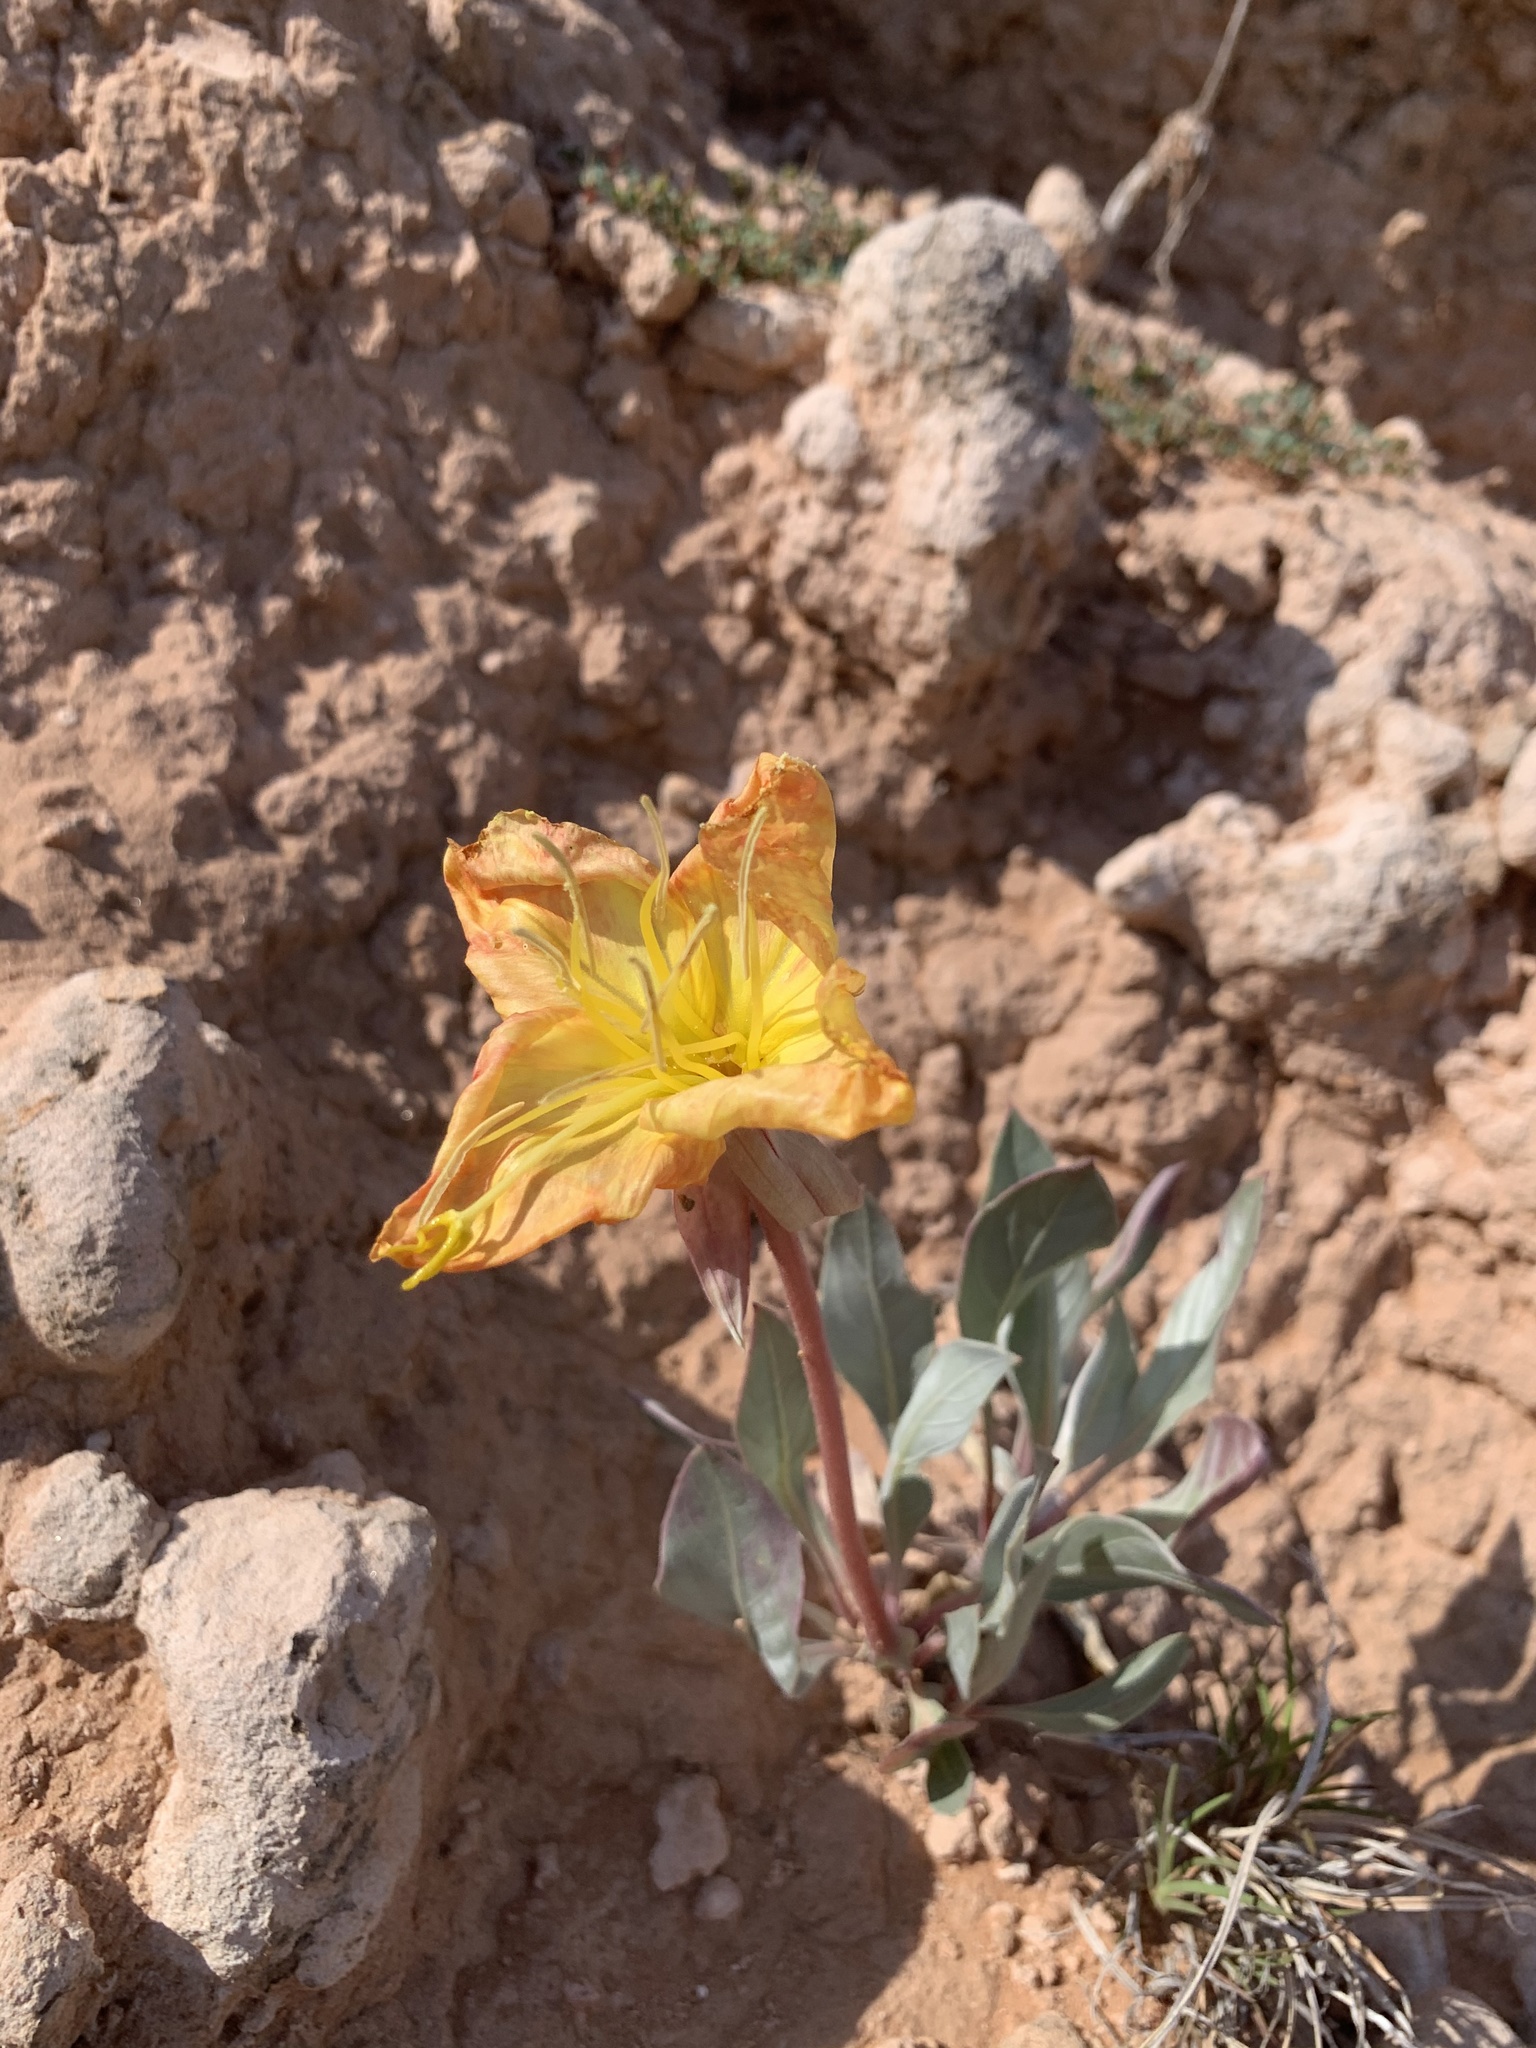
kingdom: Plantae
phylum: Tracheophyta
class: Magnoliopsida
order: Myrtales
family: Onagraceae
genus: Oenothera
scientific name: Oenothera macrocarpa
